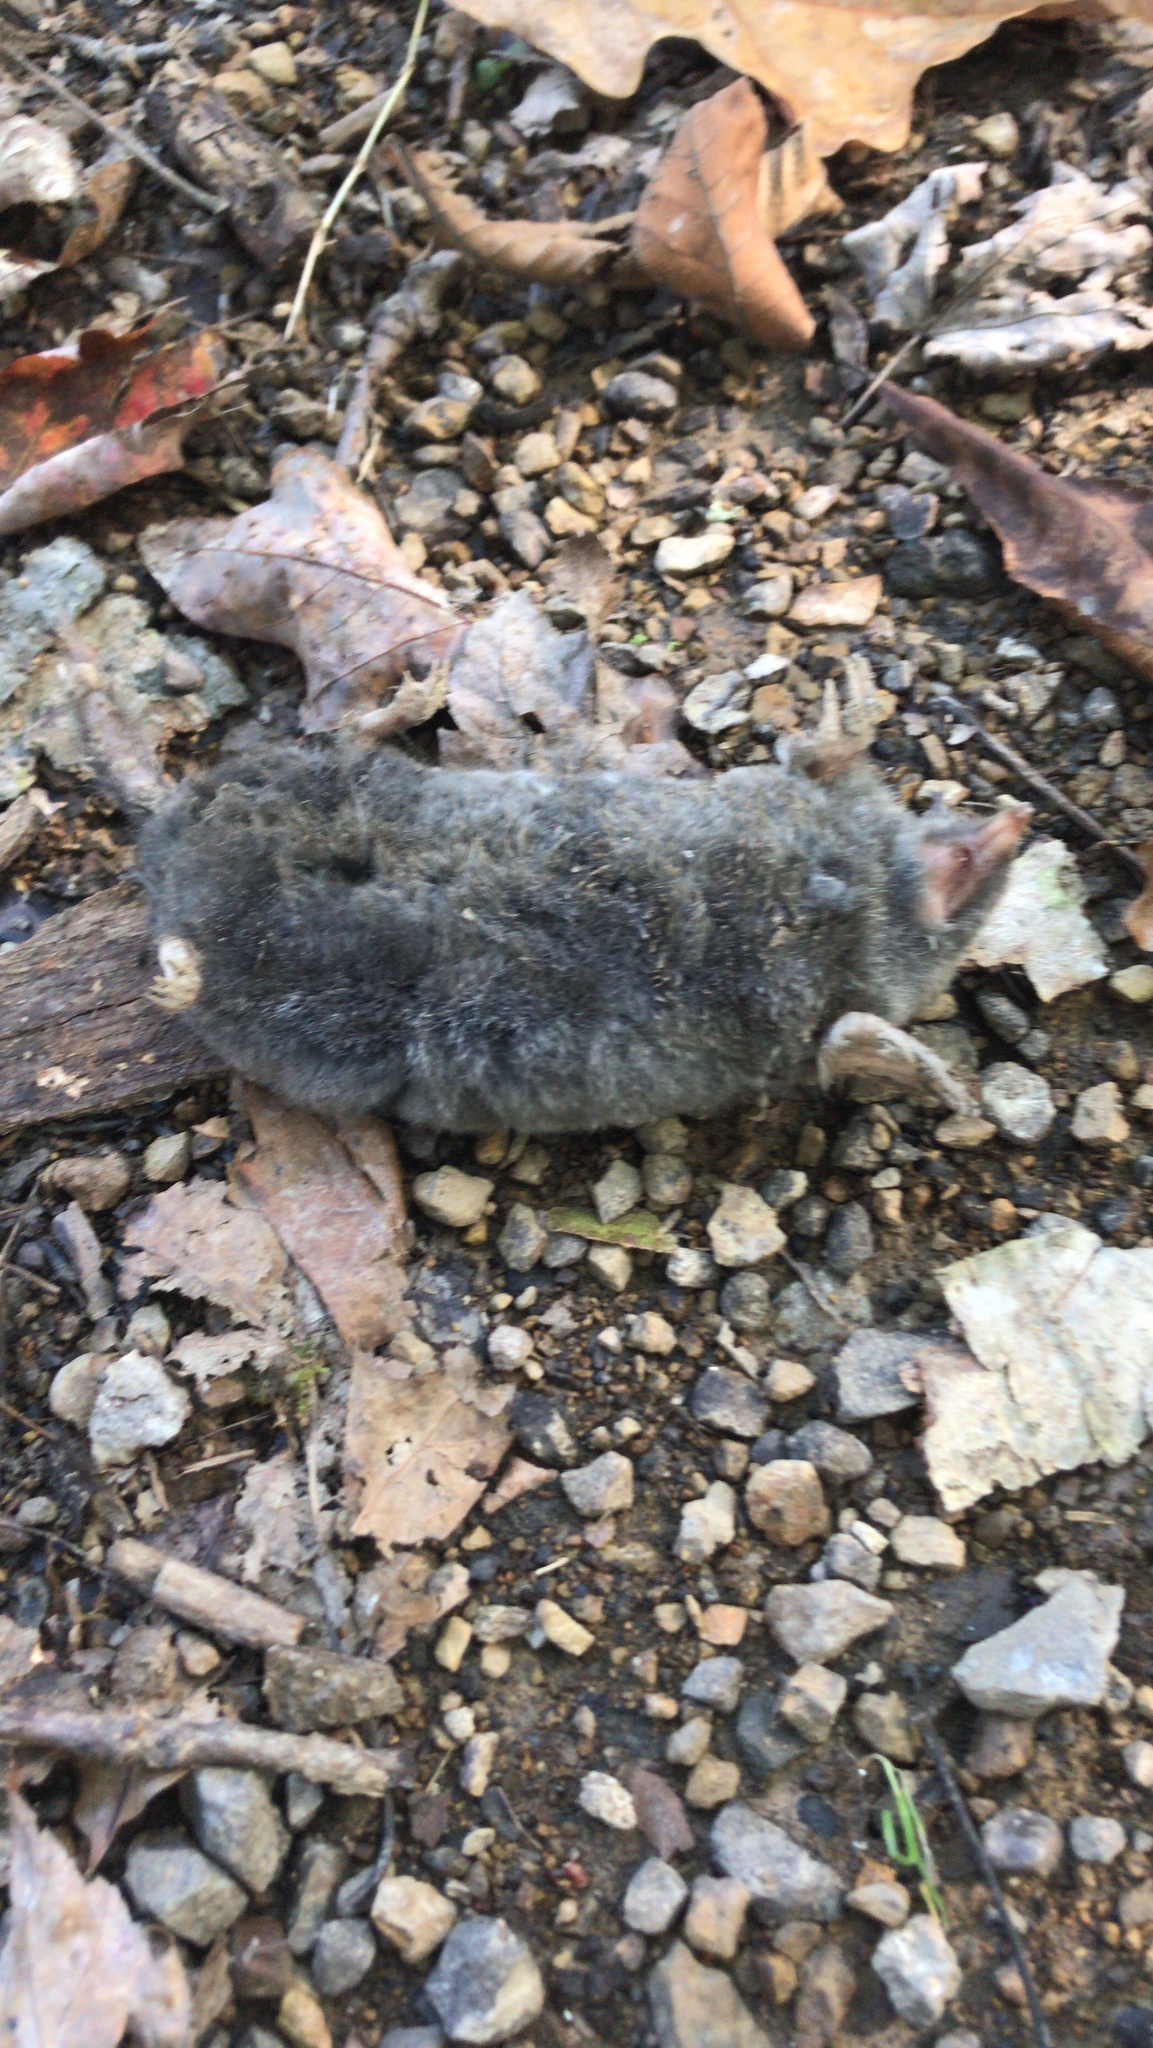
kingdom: Animalia
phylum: Chordata
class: Mammalia
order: Soricomorpha
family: Talpidae
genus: Parascalops
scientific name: Parascalops breweri
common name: Hairy-tailed mole
